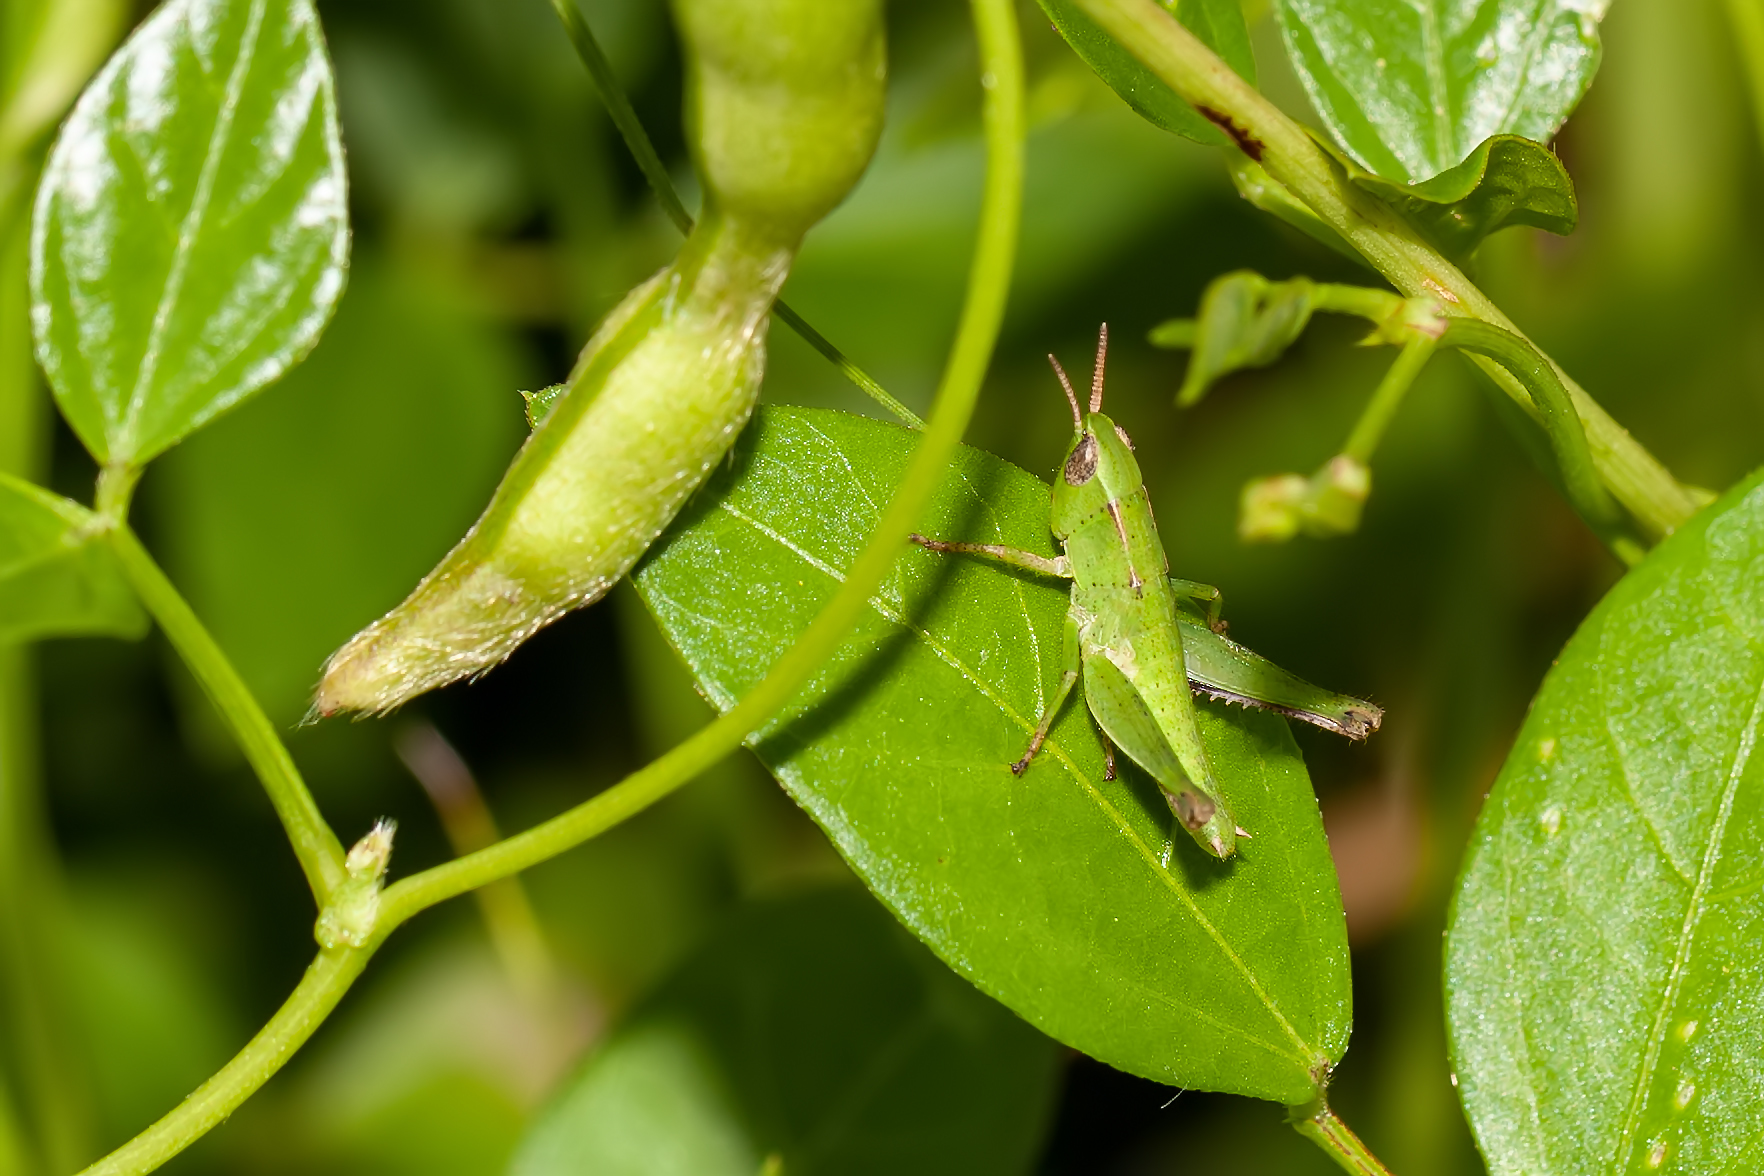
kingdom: Animalia
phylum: Arthropoda
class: Insecta
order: Orthoptera
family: Acrididae
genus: Dichromorpha
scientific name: Dichromorpha viridis
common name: Short-winged green grasshopper
